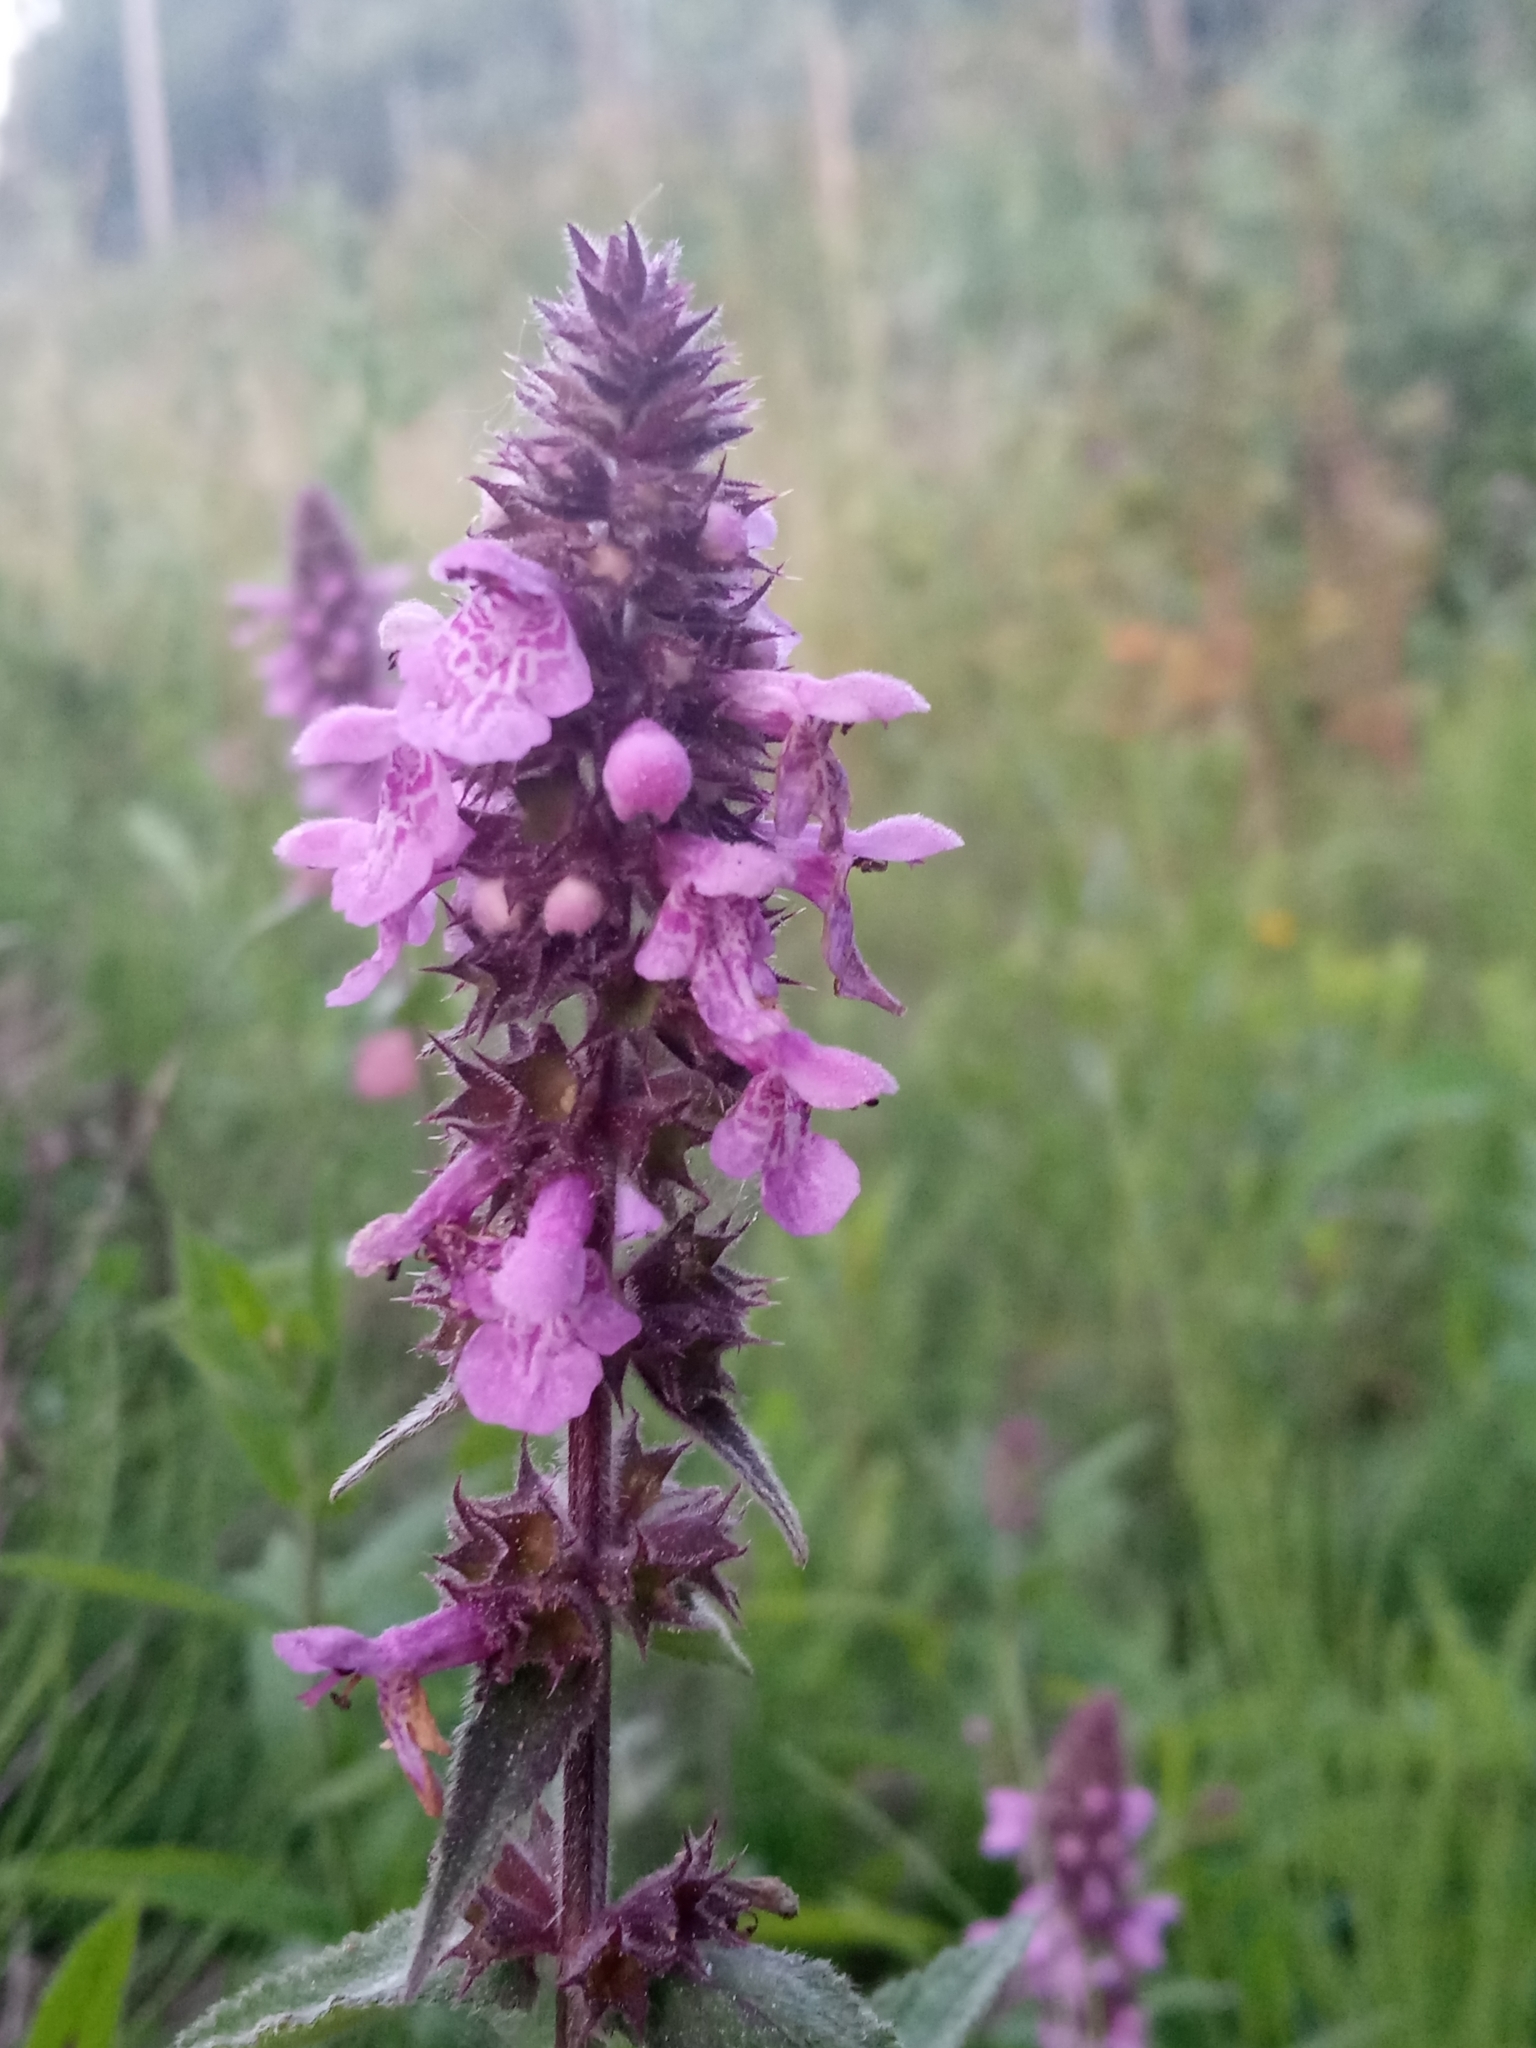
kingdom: Plantae
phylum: Tracheophyta
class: Magnoliopsida
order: Lamiales
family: Lamiaceae
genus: Stachys
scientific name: Stachys palustris
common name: Marsh woundwort
